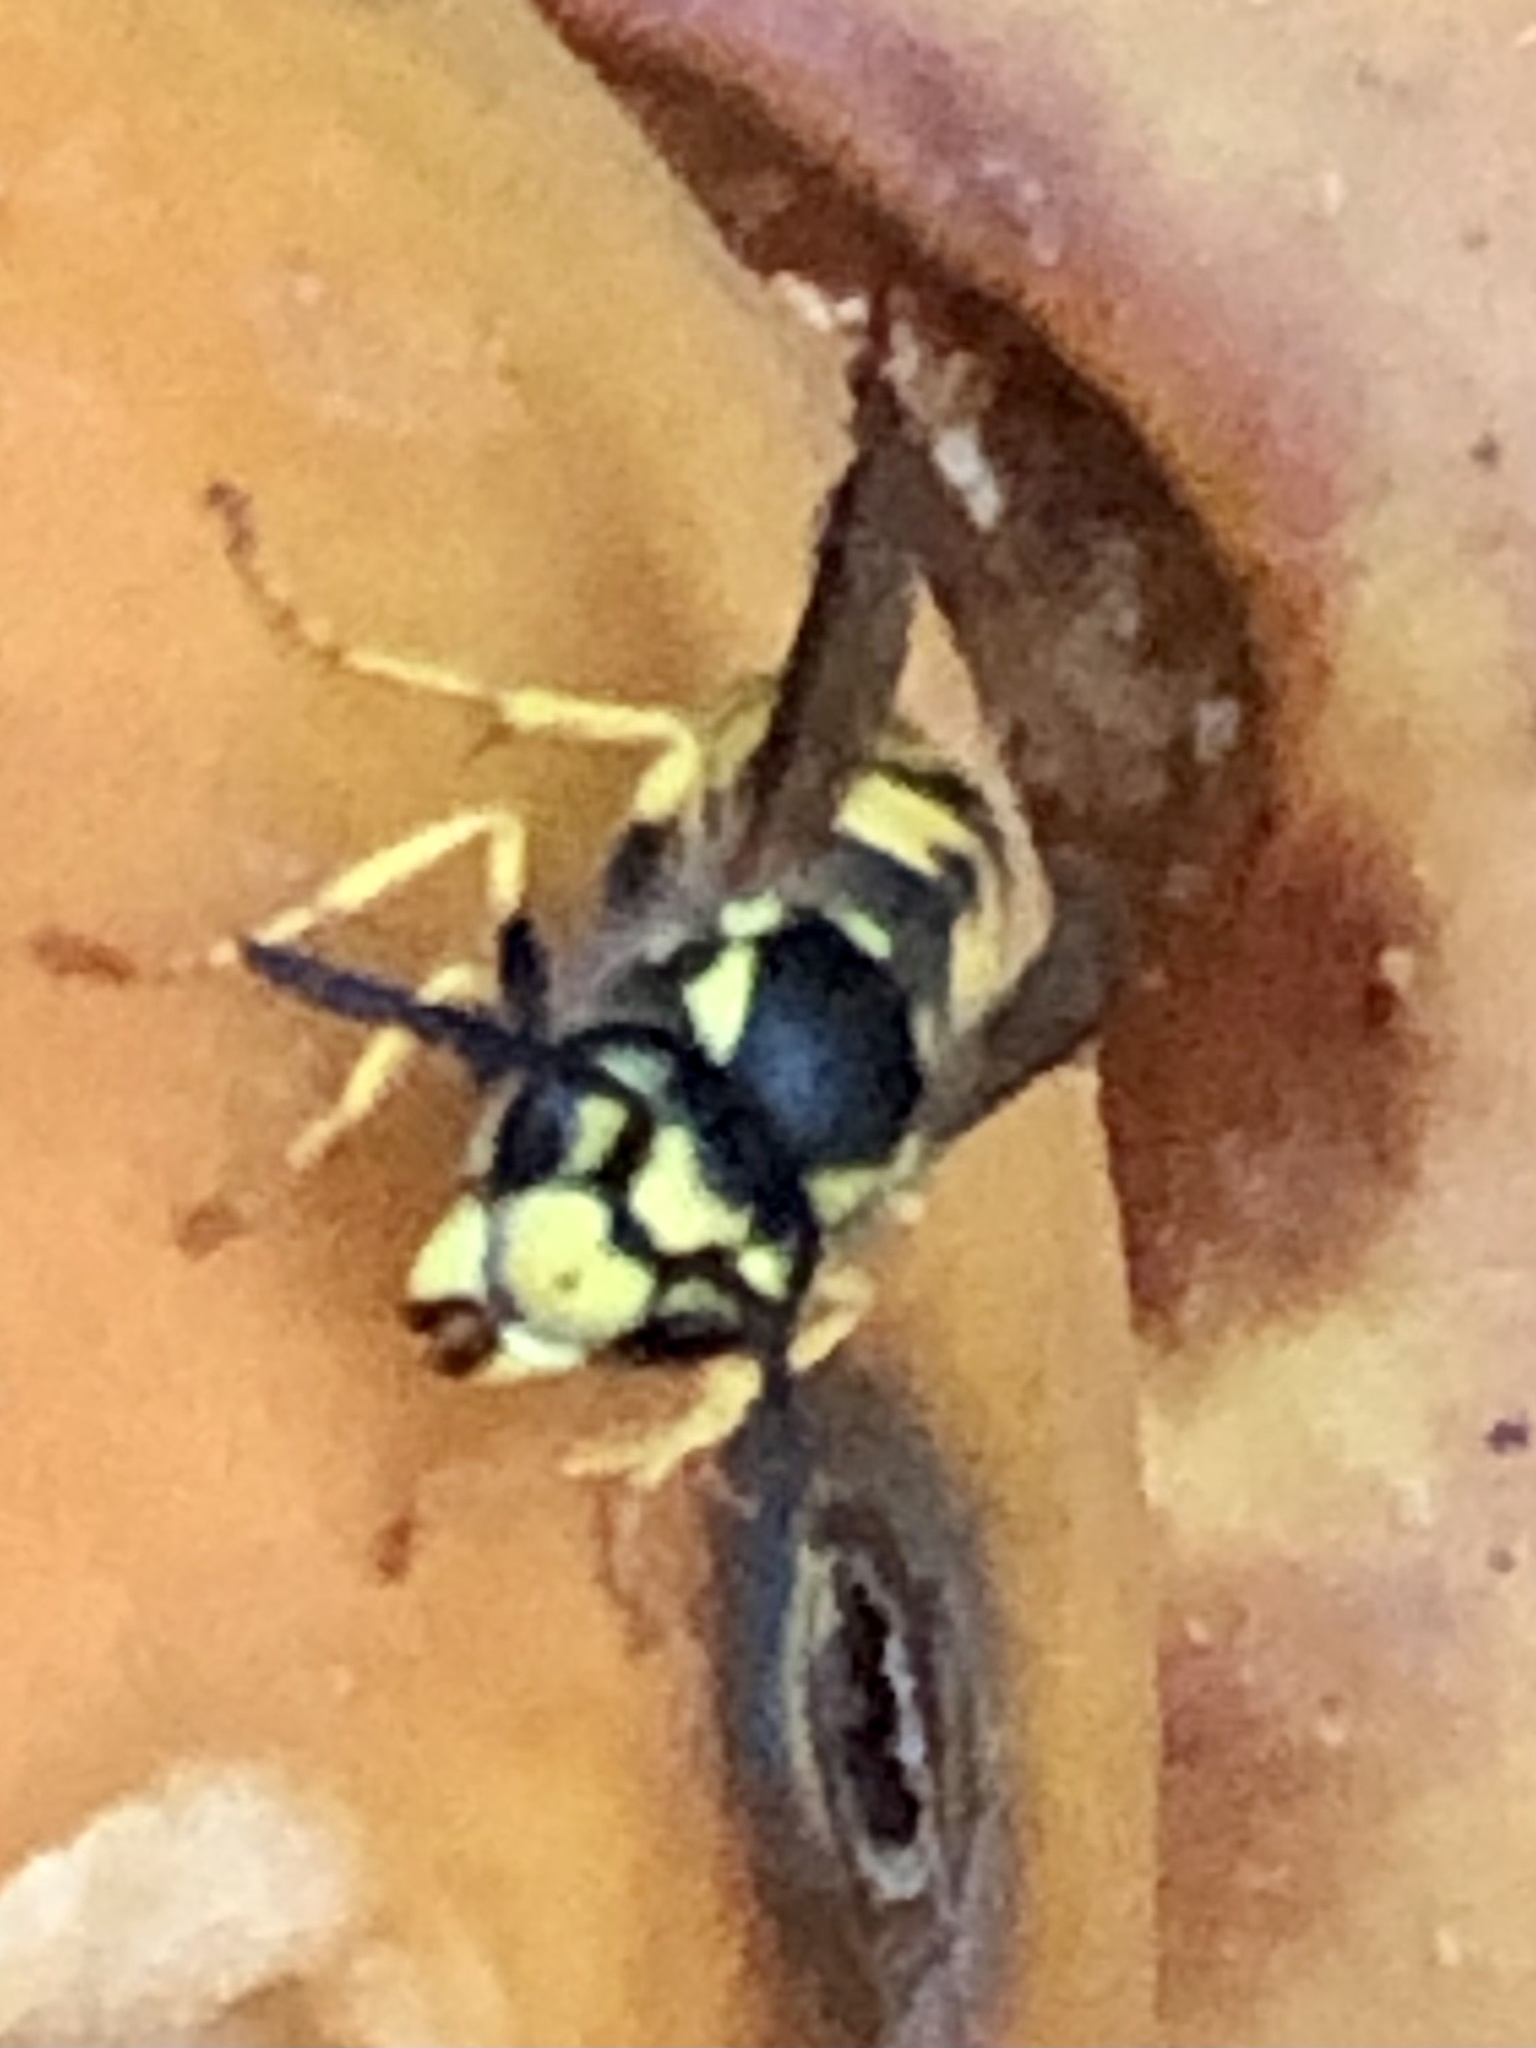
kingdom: Animalia
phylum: Arthropoda
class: Insecta
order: Hymenoptera
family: Vespidae
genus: Vespula
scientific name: Vespula germanica
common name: German wasp
